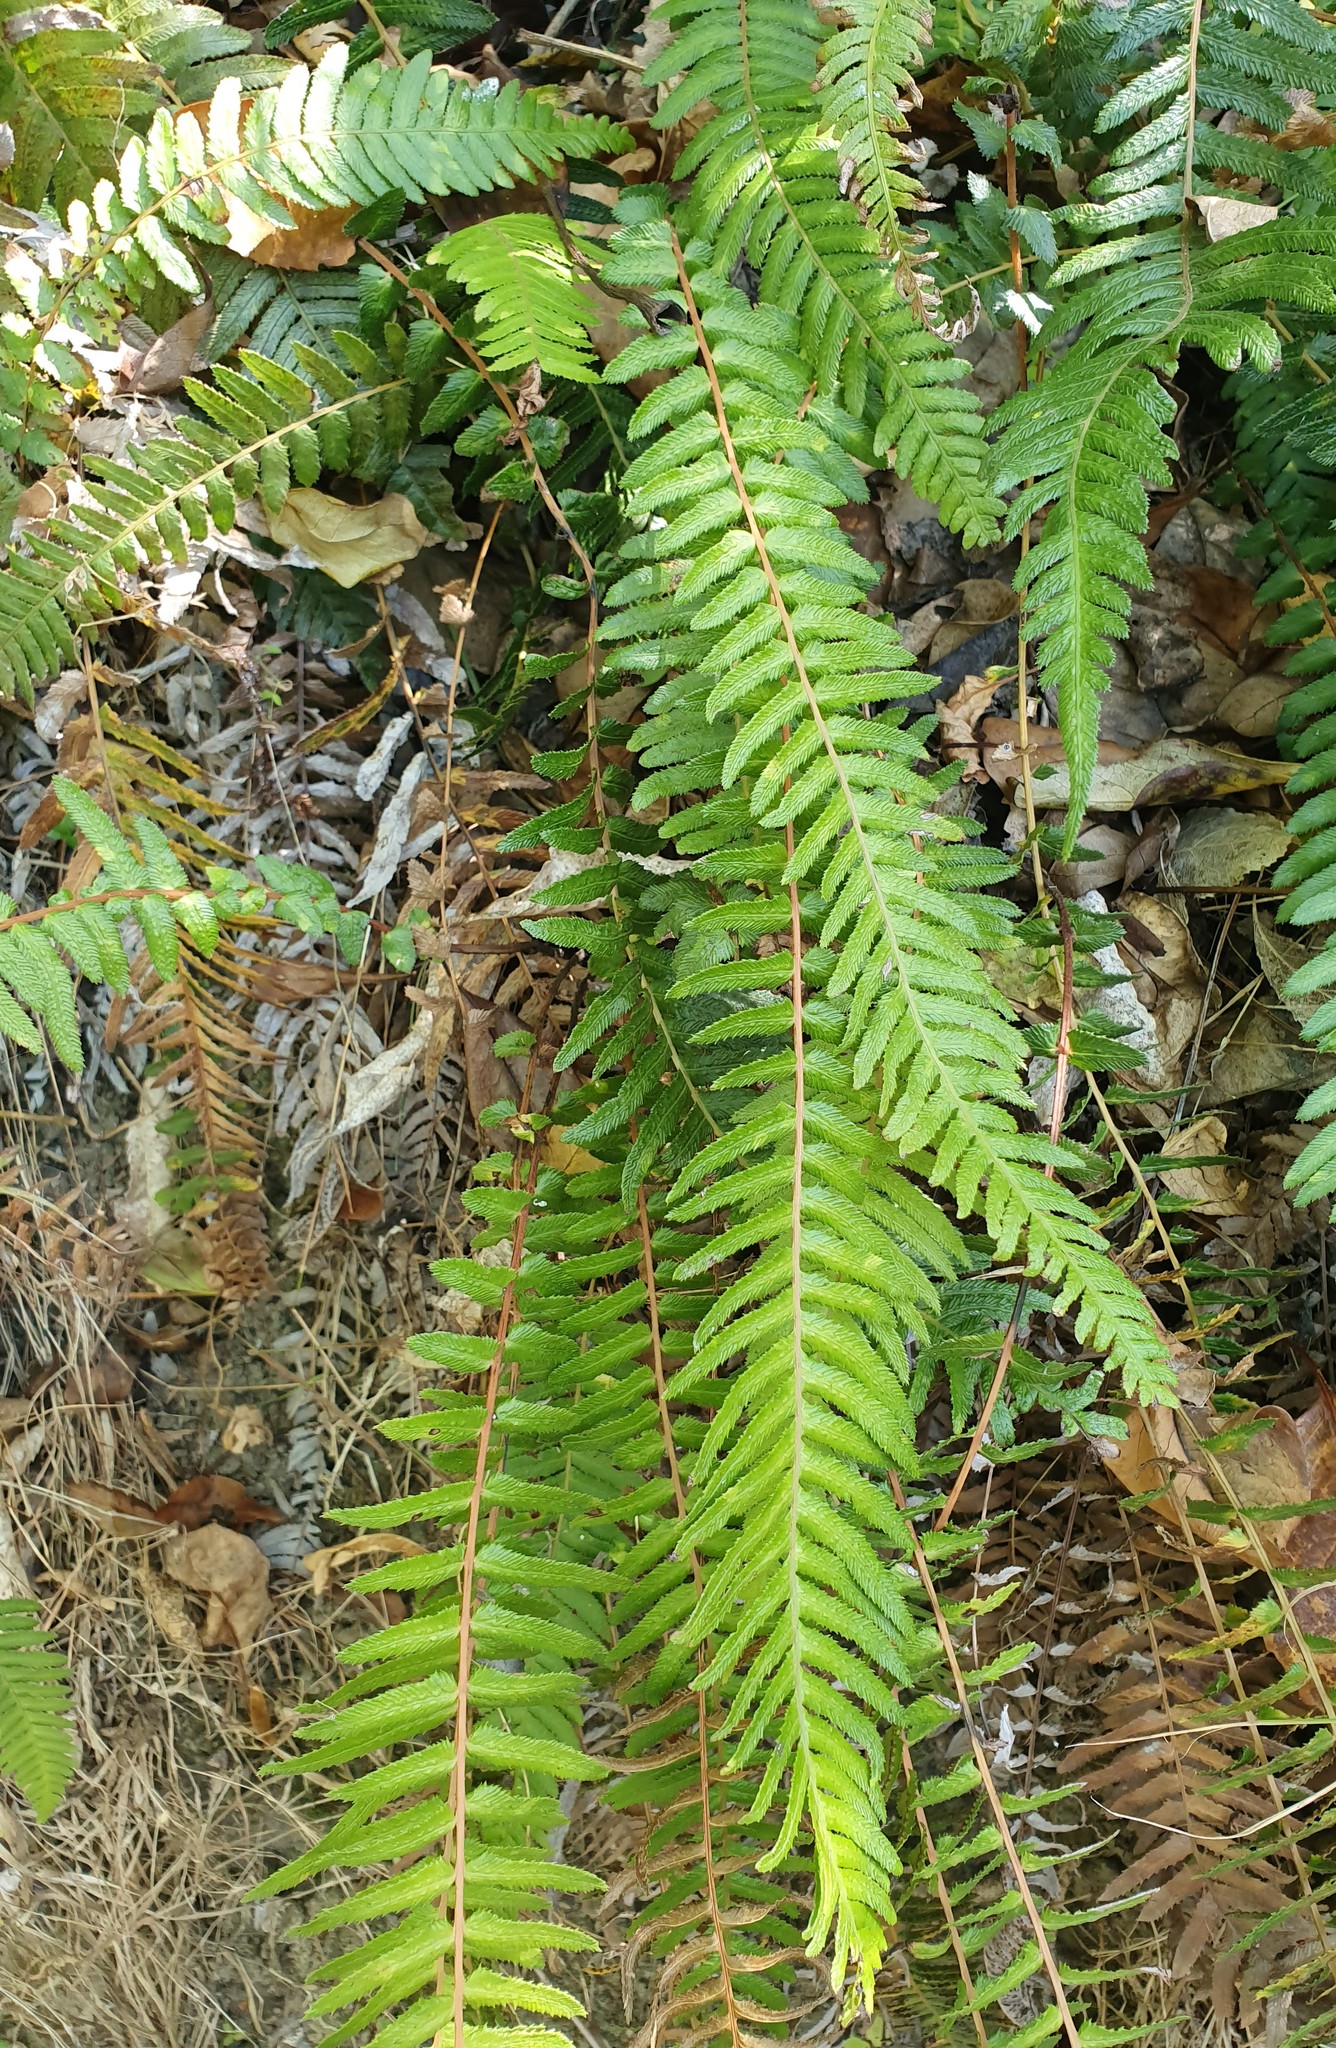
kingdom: Plantae
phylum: Tracheophyta
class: Polypodiopsida
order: Polypodiales
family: Blechnaceae
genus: Doodia
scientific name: Doodia australis
